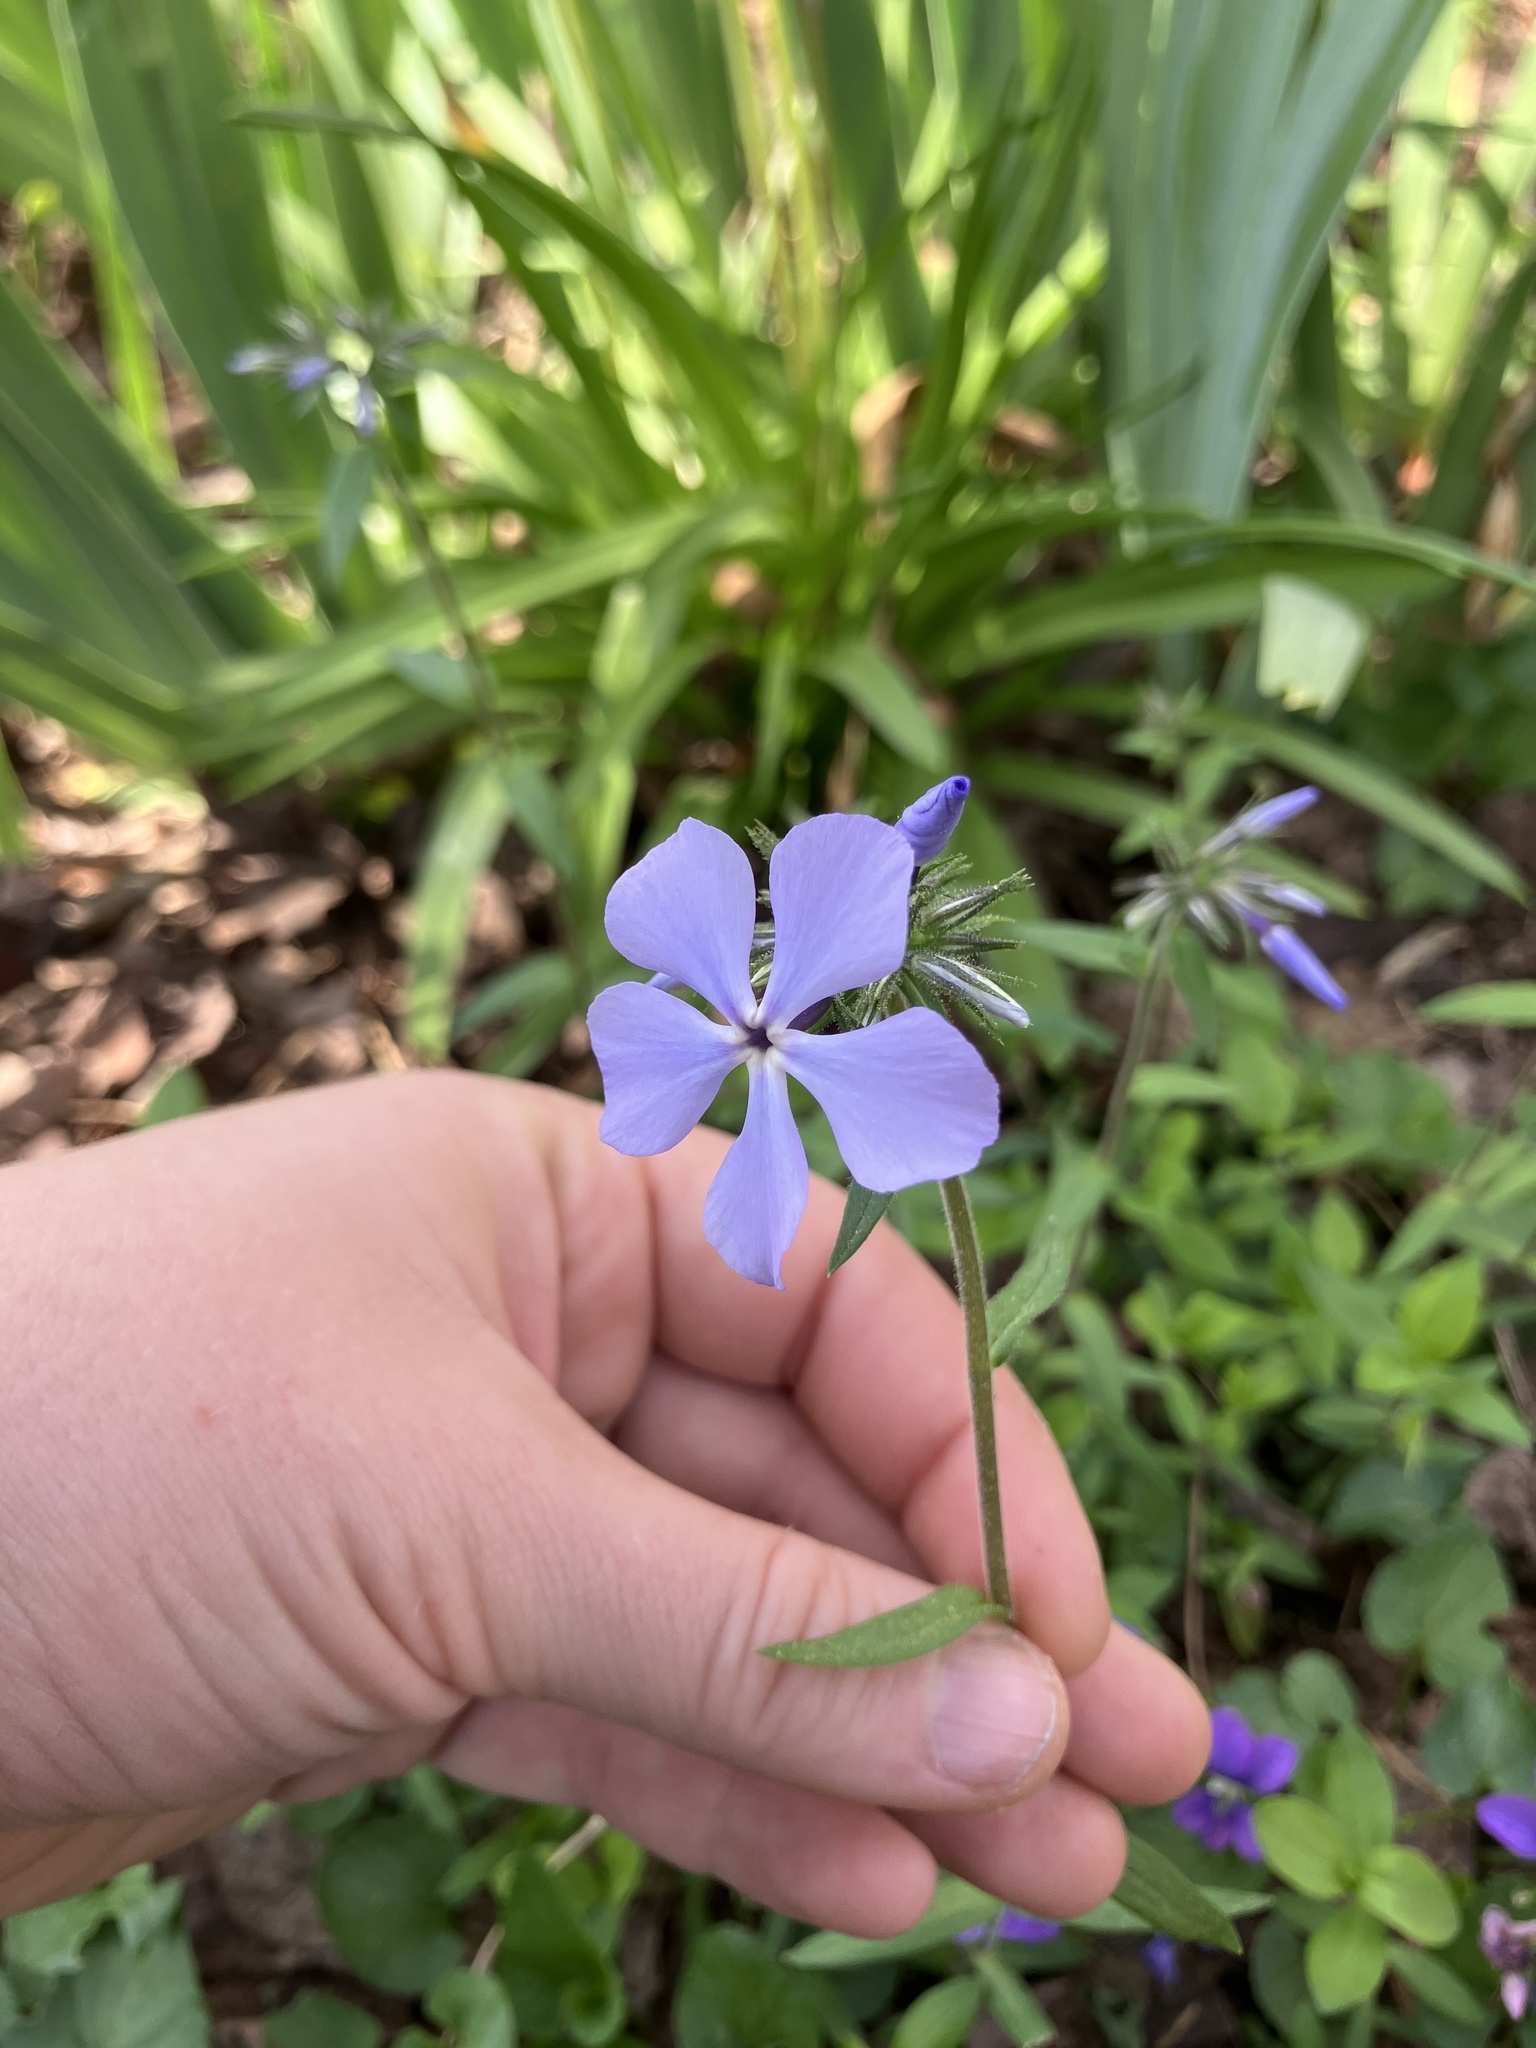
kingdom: Plantae
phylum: Tracheophyta
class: Magnoliopsida
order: Ericales
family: Polemoniaceae
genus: Phlox
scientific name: Phlox divaricata
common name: Blue phlox
